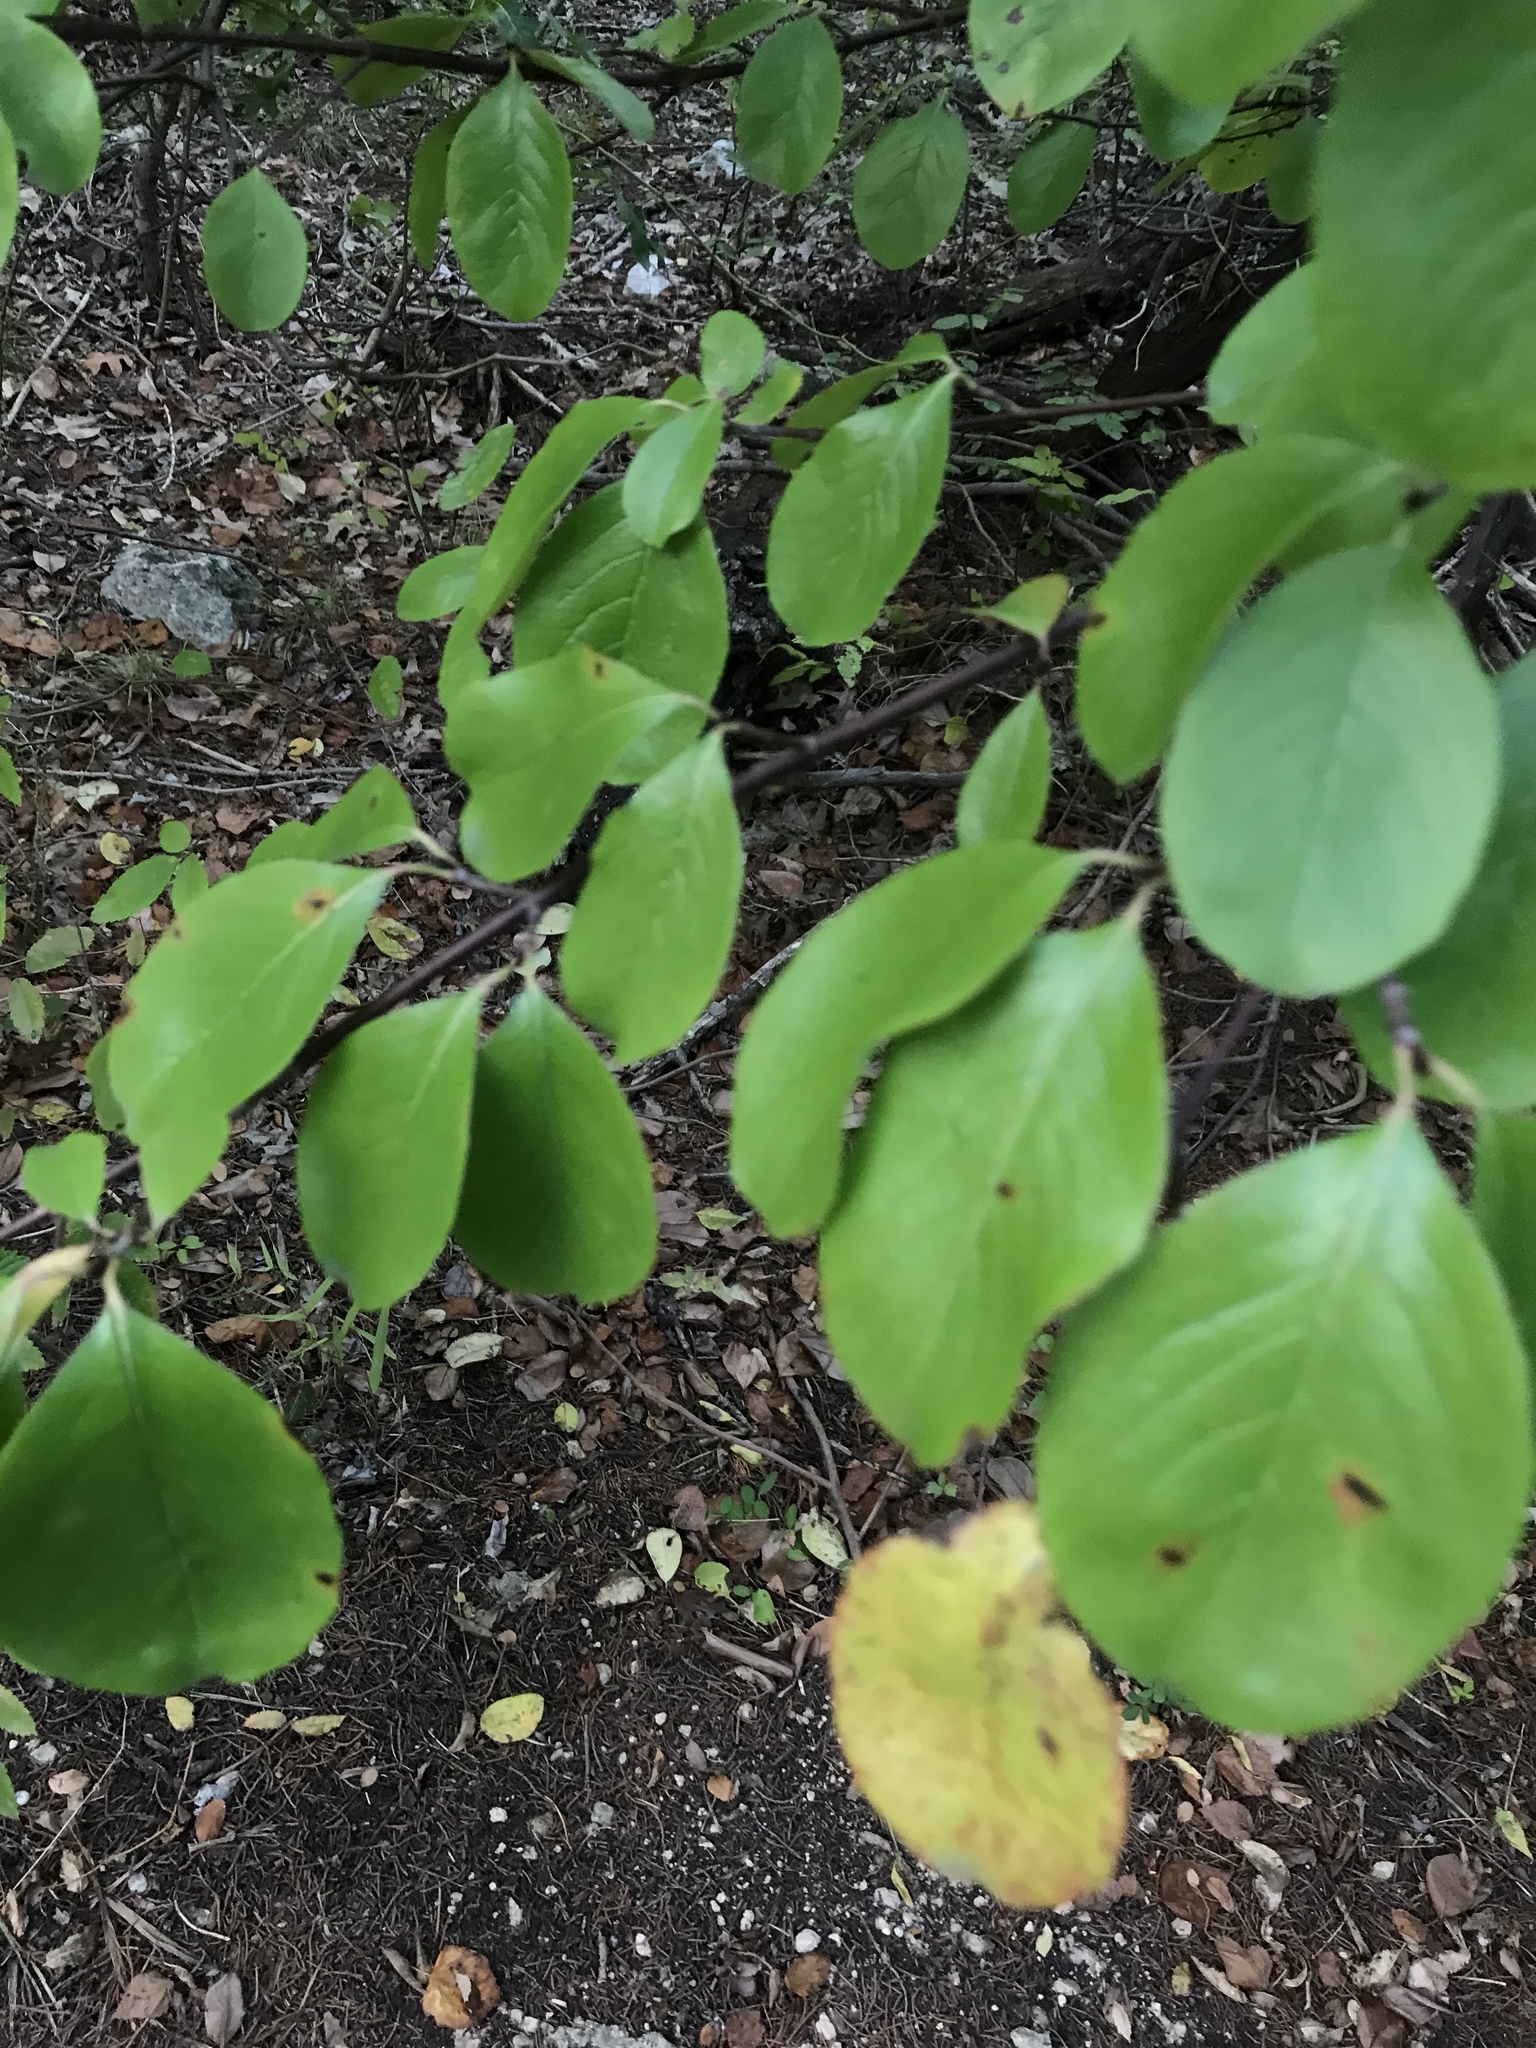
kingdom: Plantae
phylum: Tracheophyta
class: Magnoliopsida
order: Dipsacales
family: Viburnaceae
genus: Viburnum
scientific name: Viburnum rufidulum
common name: Blue haw
